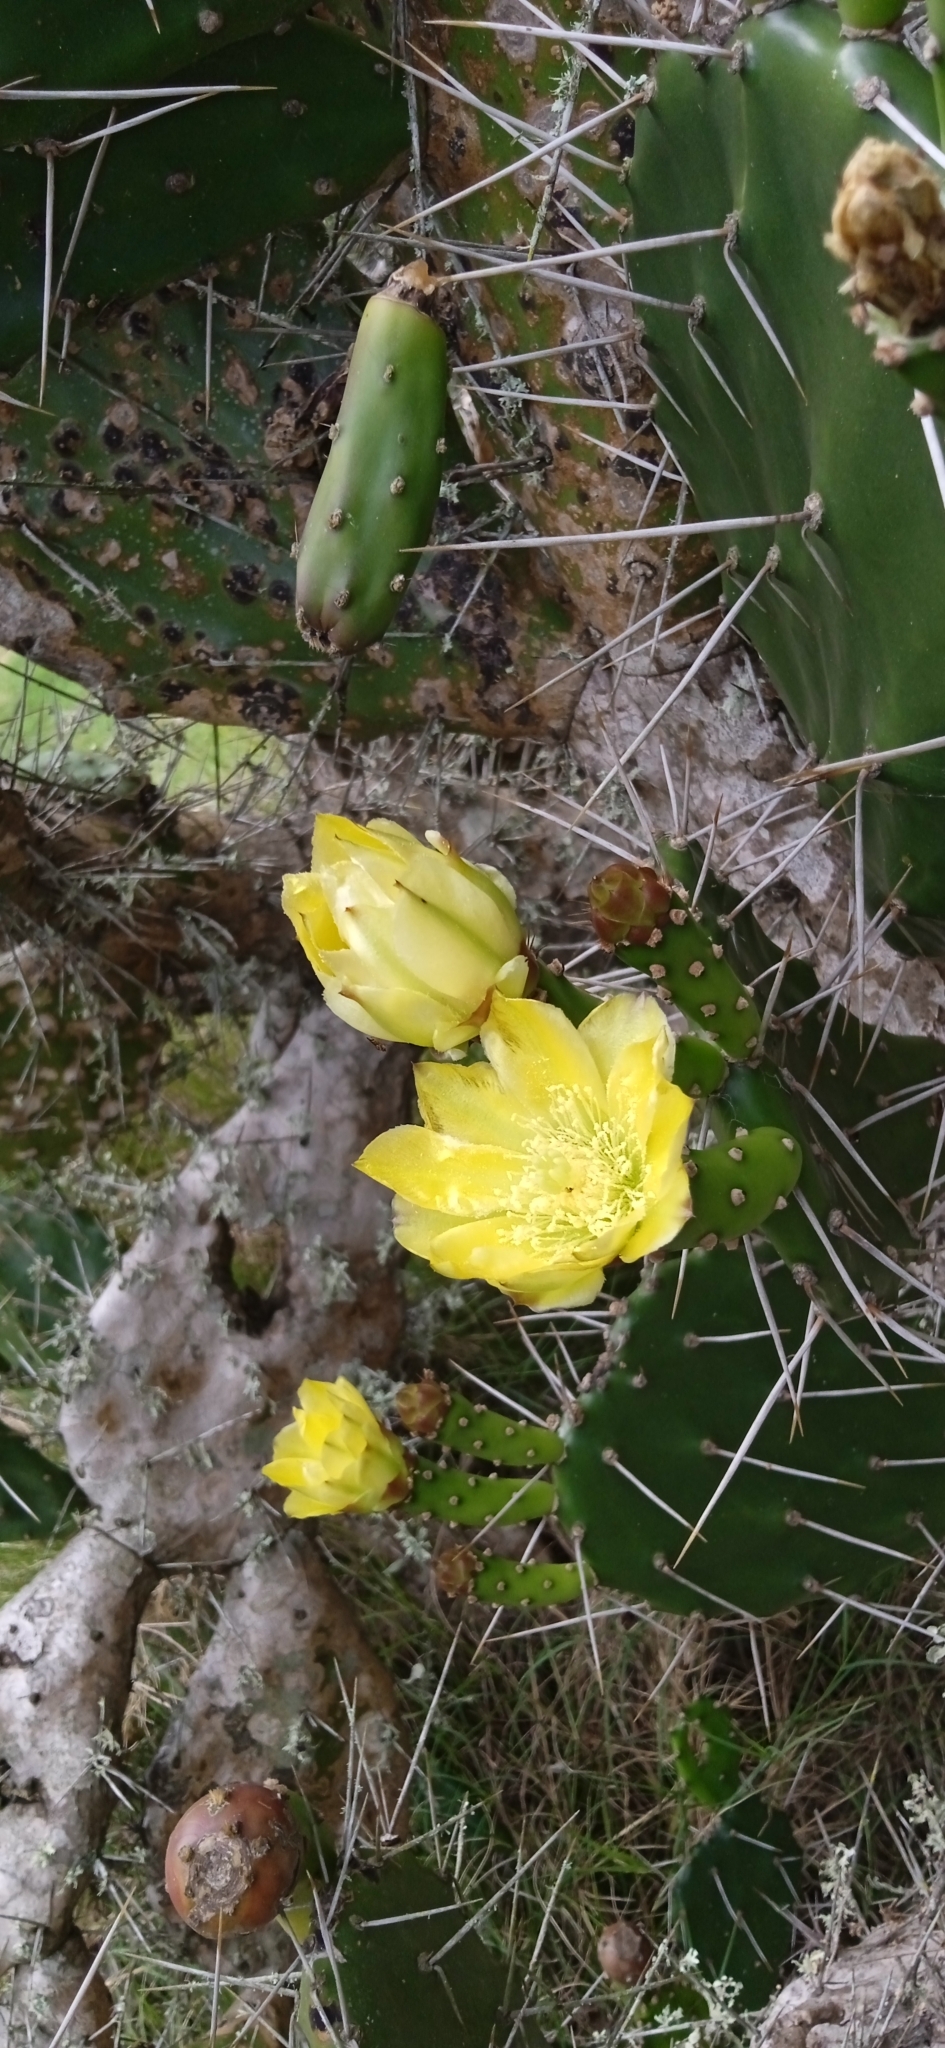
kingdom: Plantae
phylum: Tracheophyta
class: Magnoliopsida
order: Caryophyllales
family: Cactaceae
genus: Opuntia
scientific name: Opuntia arechavaletae
